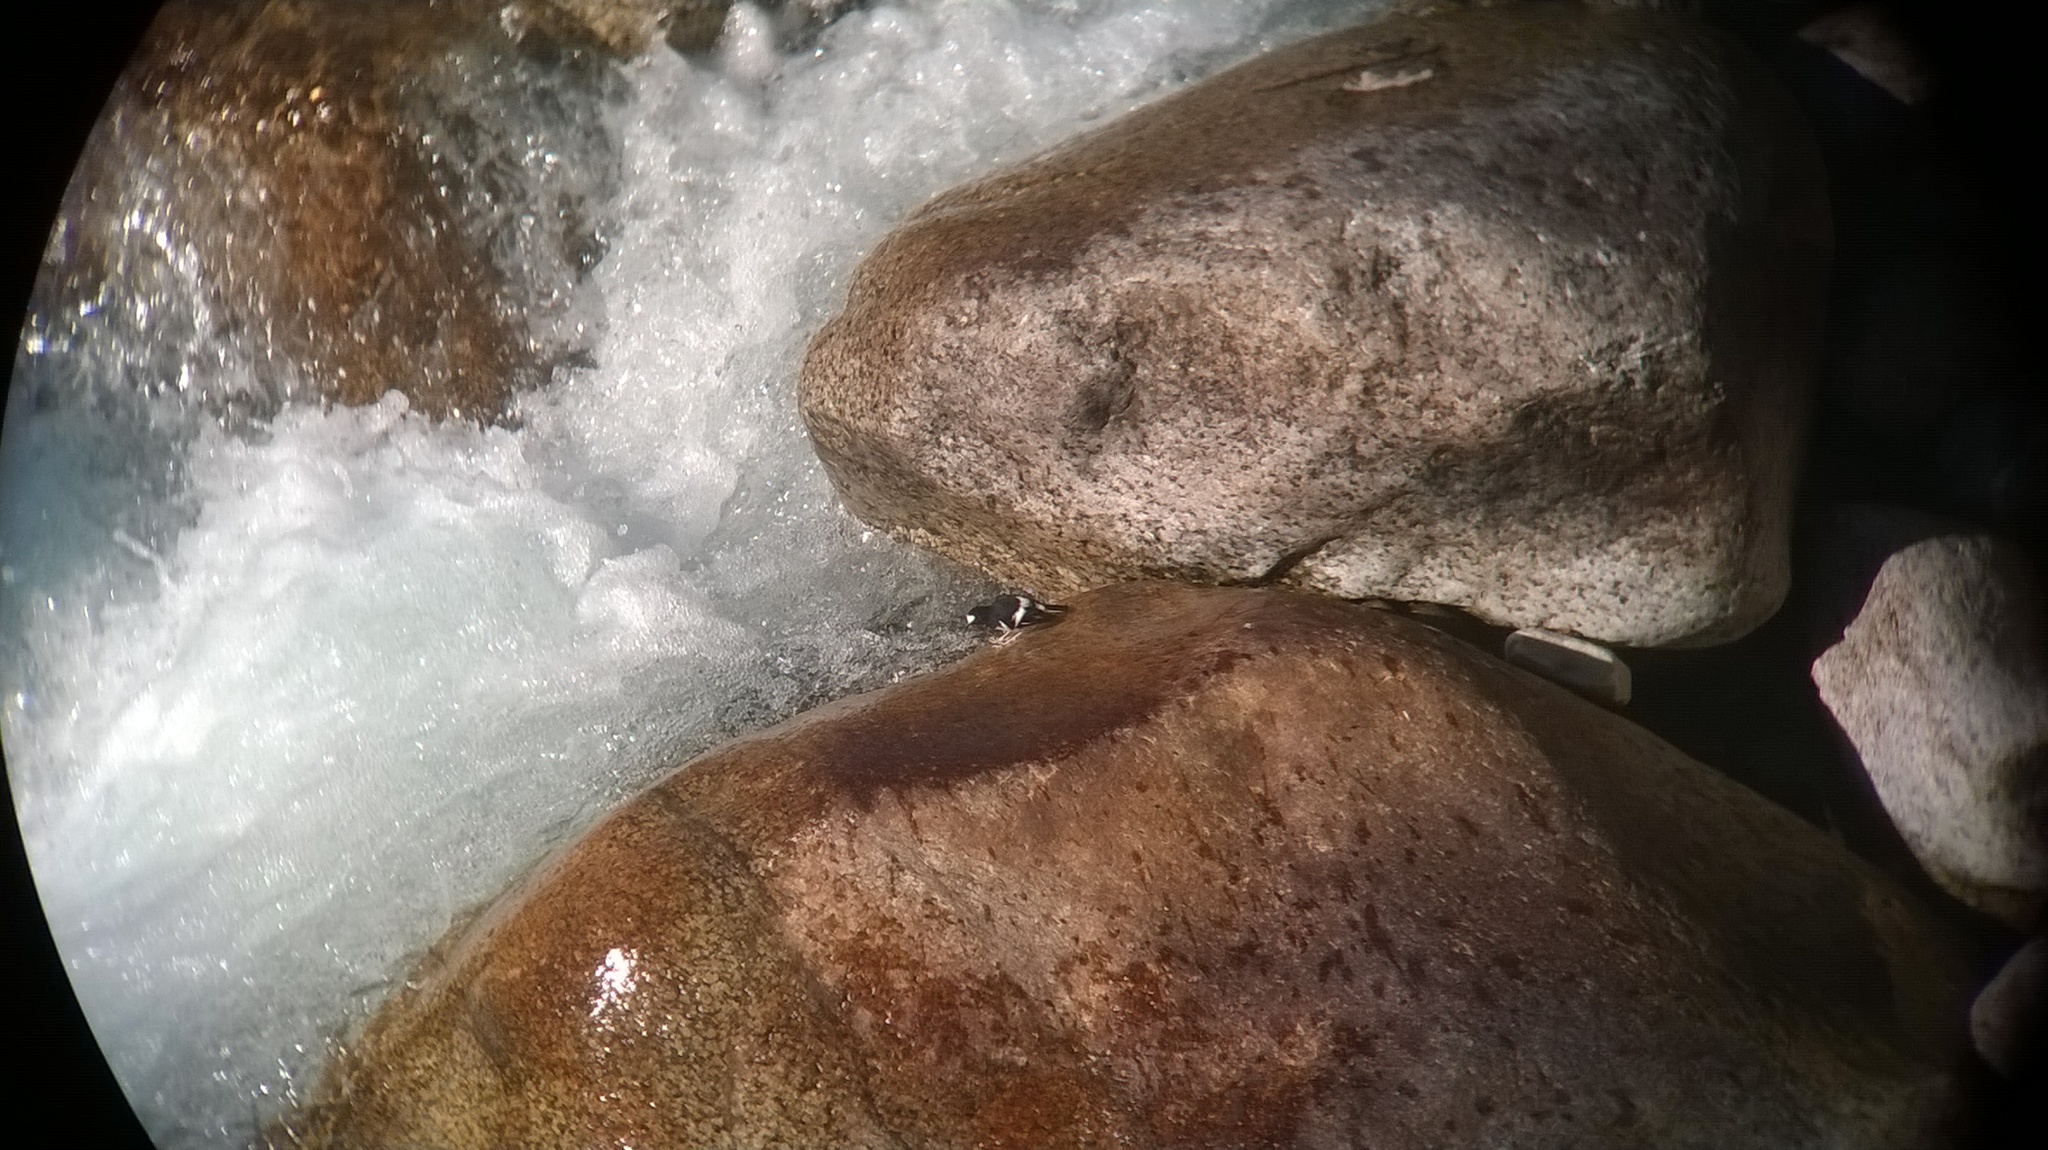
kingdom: Animalia
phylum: Chordata
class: Aves
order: Passeriformes
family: Muscicapidae
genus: Enicurus
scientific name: Enicurus scouleri
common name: Little forktail
